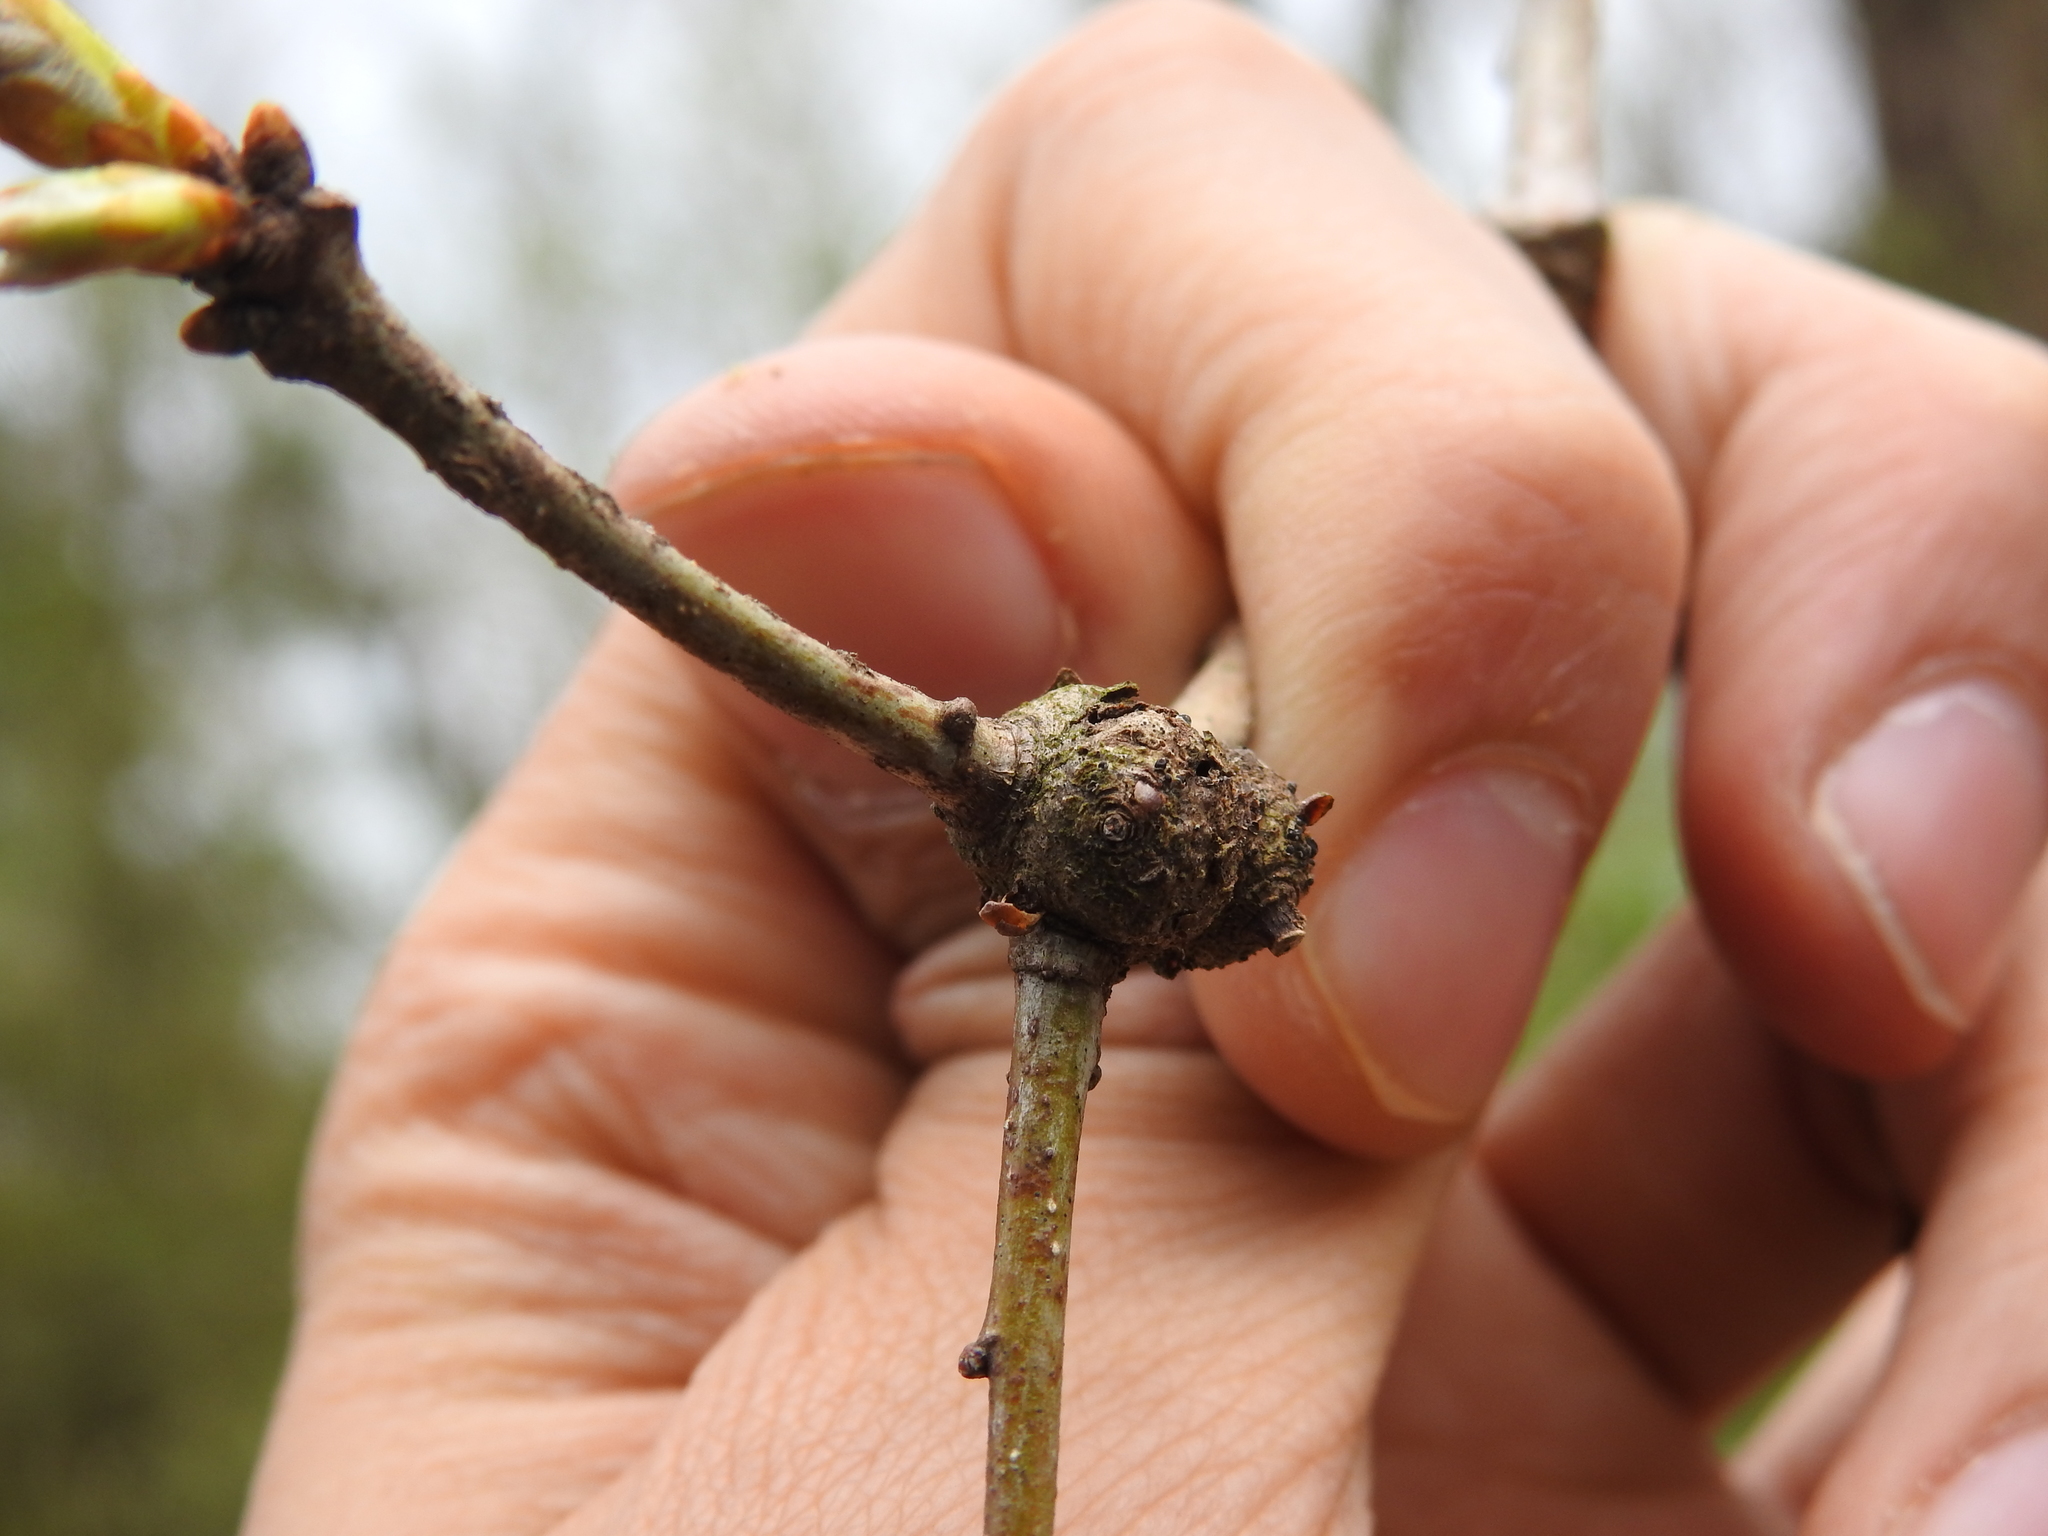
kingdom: Animalia
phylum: Arthropoda
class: Insecta
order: Hymenoptera
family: Cynipidae
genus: Loxaulus
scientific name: Loxaulus
